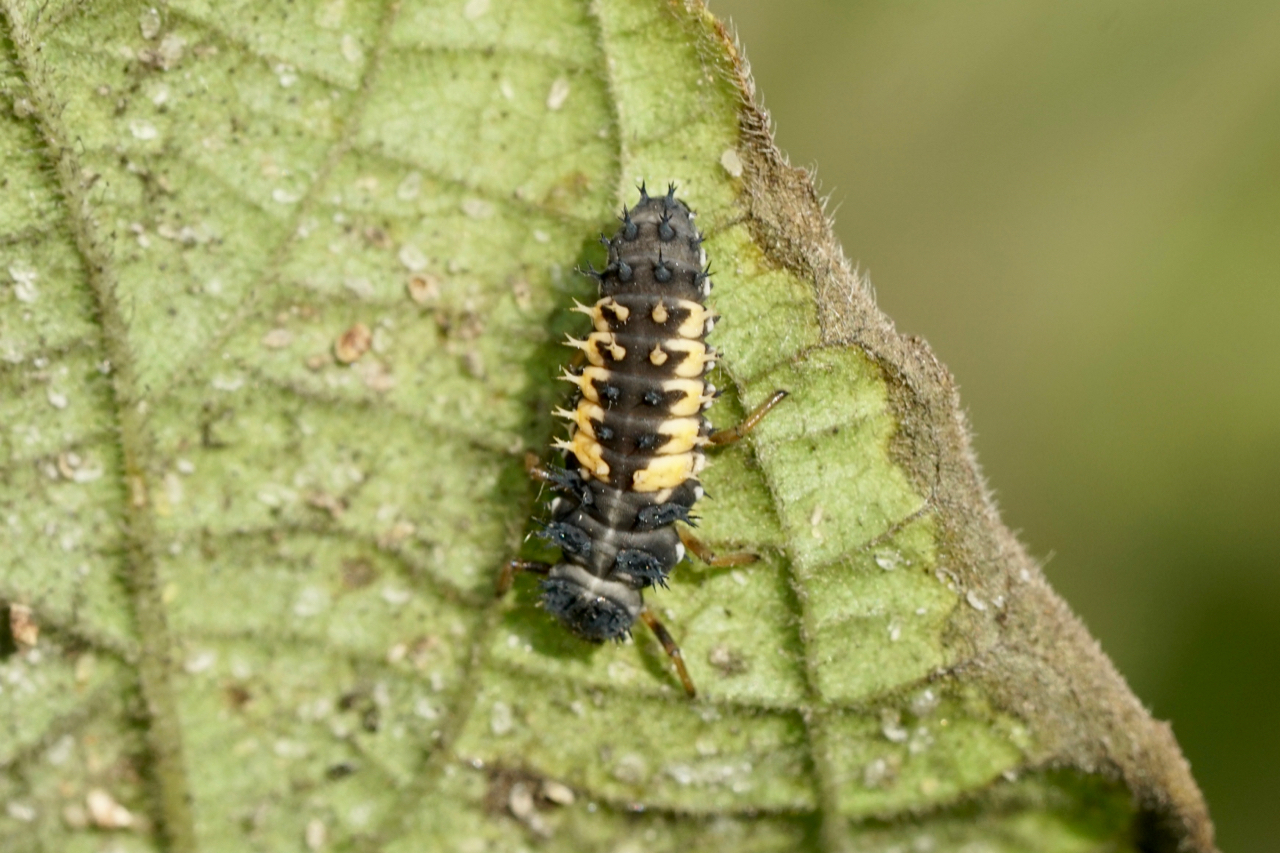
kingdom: Animalia
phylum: Arthropoda
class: Insecta
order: Coleoptera
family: Coccinellidae
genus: Harmonia
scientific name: Harmonia axyridis
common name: Harlequin ladybird
